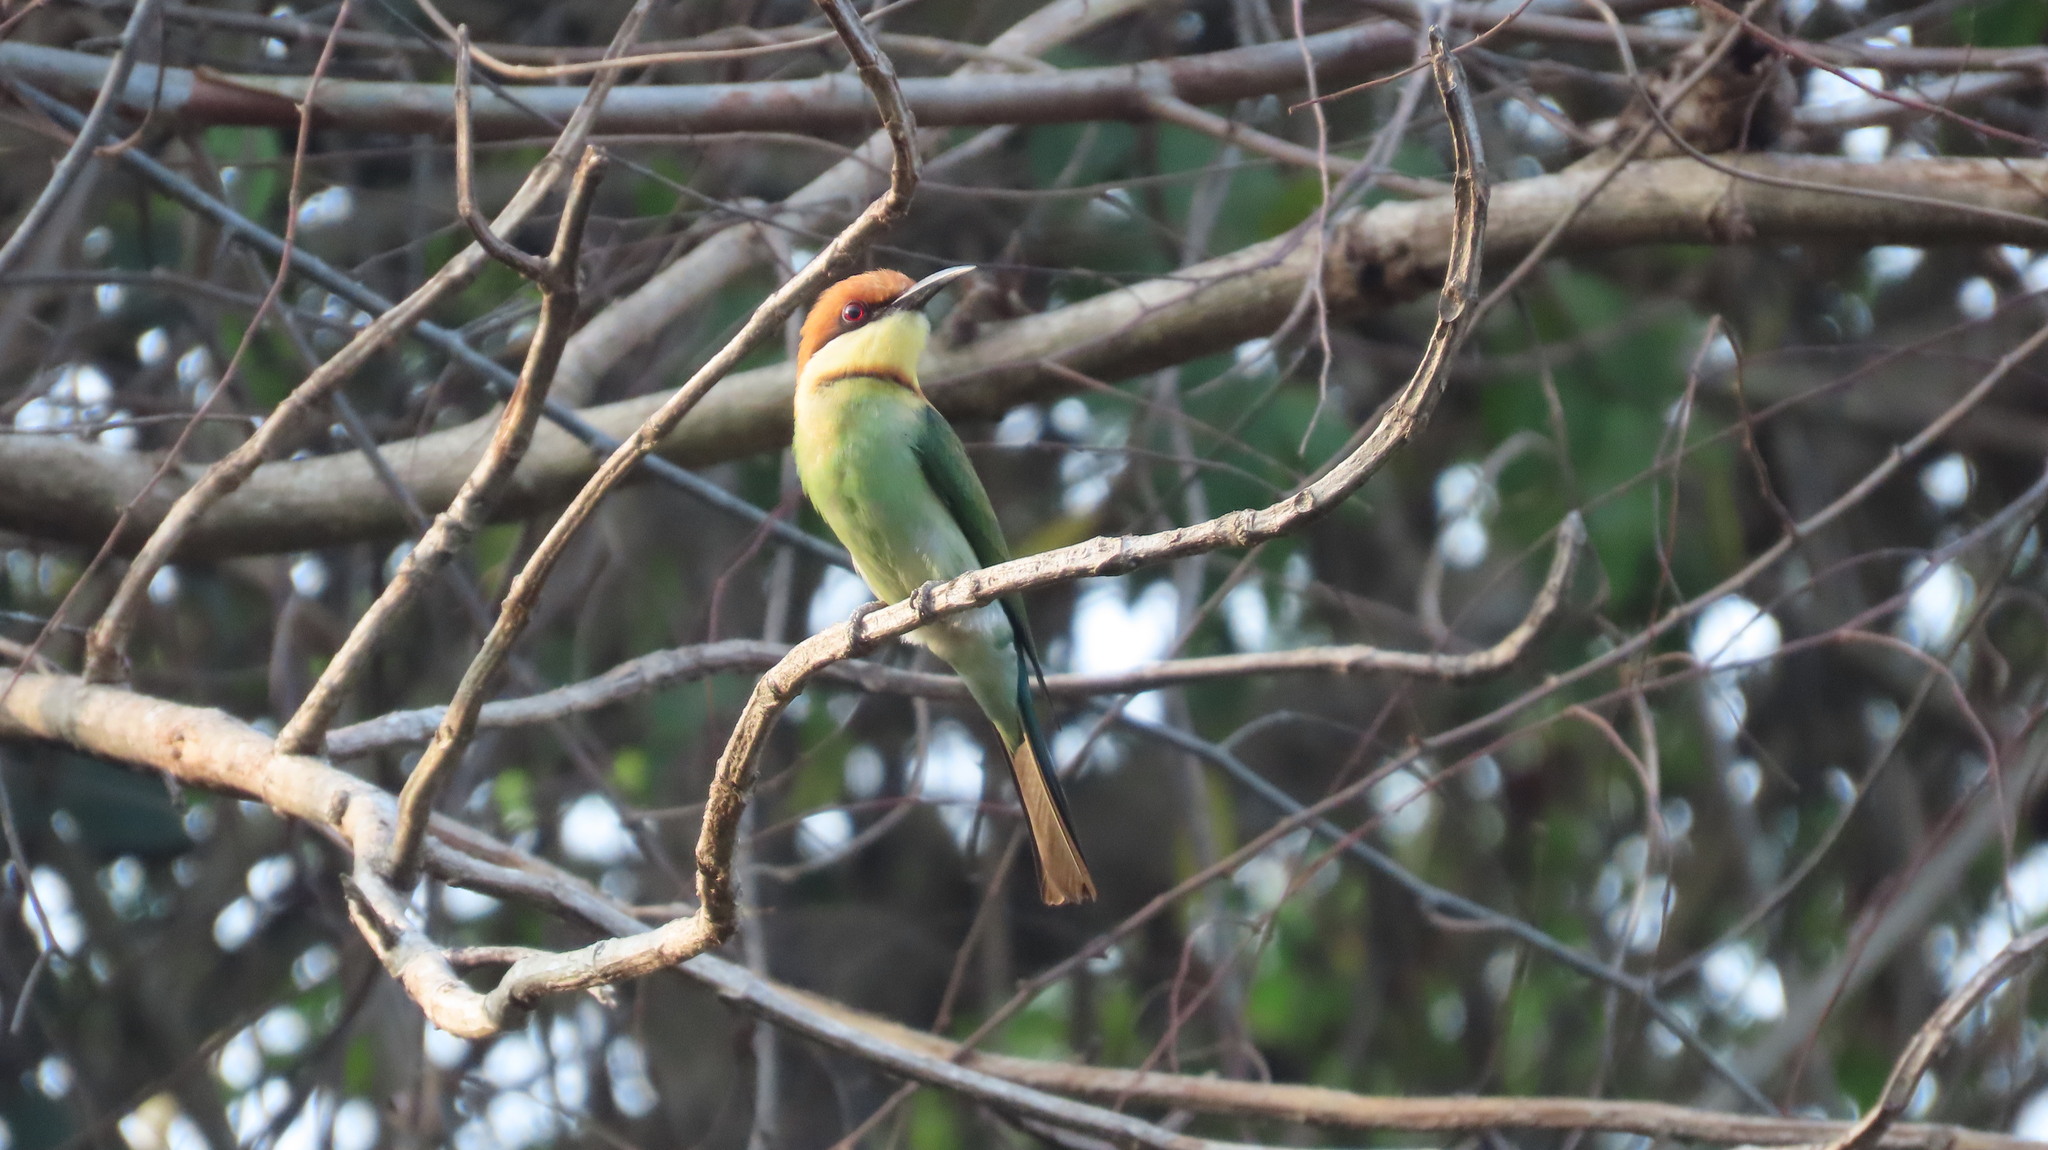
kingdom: Animalia
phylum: Chordata
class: Aves
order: Coraciiformes
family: Meropidae
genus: Merops
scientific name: Merops leschenaulti
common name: Chestnut-headed bee-eater
